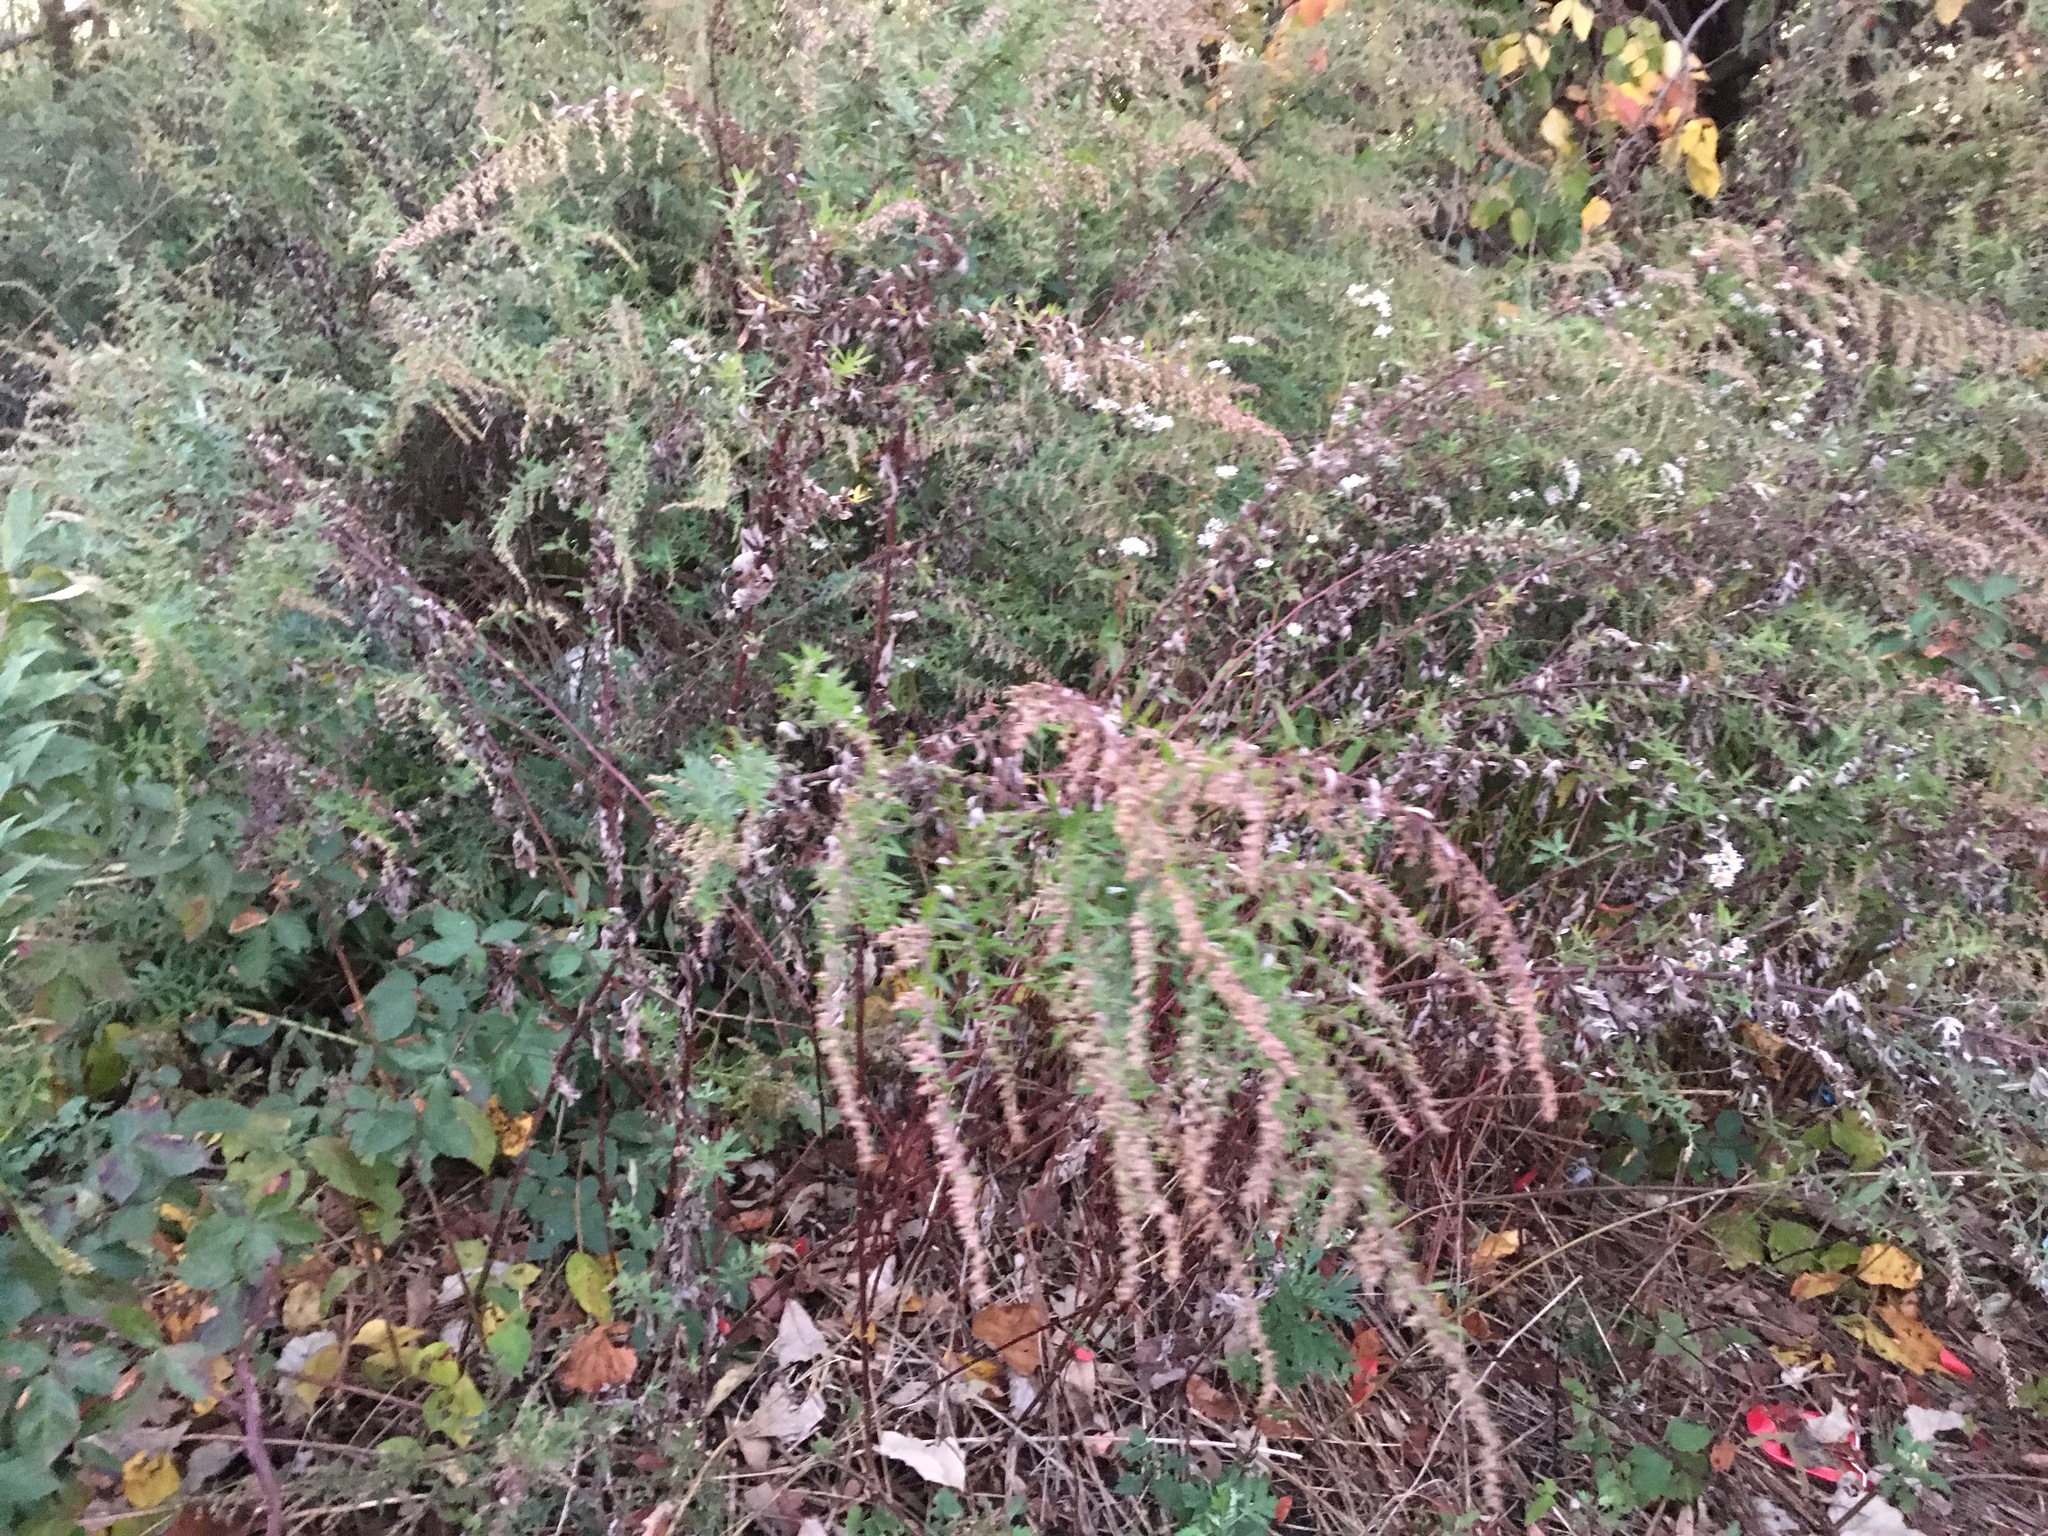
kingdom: Plantae
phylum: Tracheophyta
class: Magnoliopsida
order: Asterales
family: Asteraceae
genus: Artemisia
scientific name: Artemisia vulgaris
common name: Mugwort
